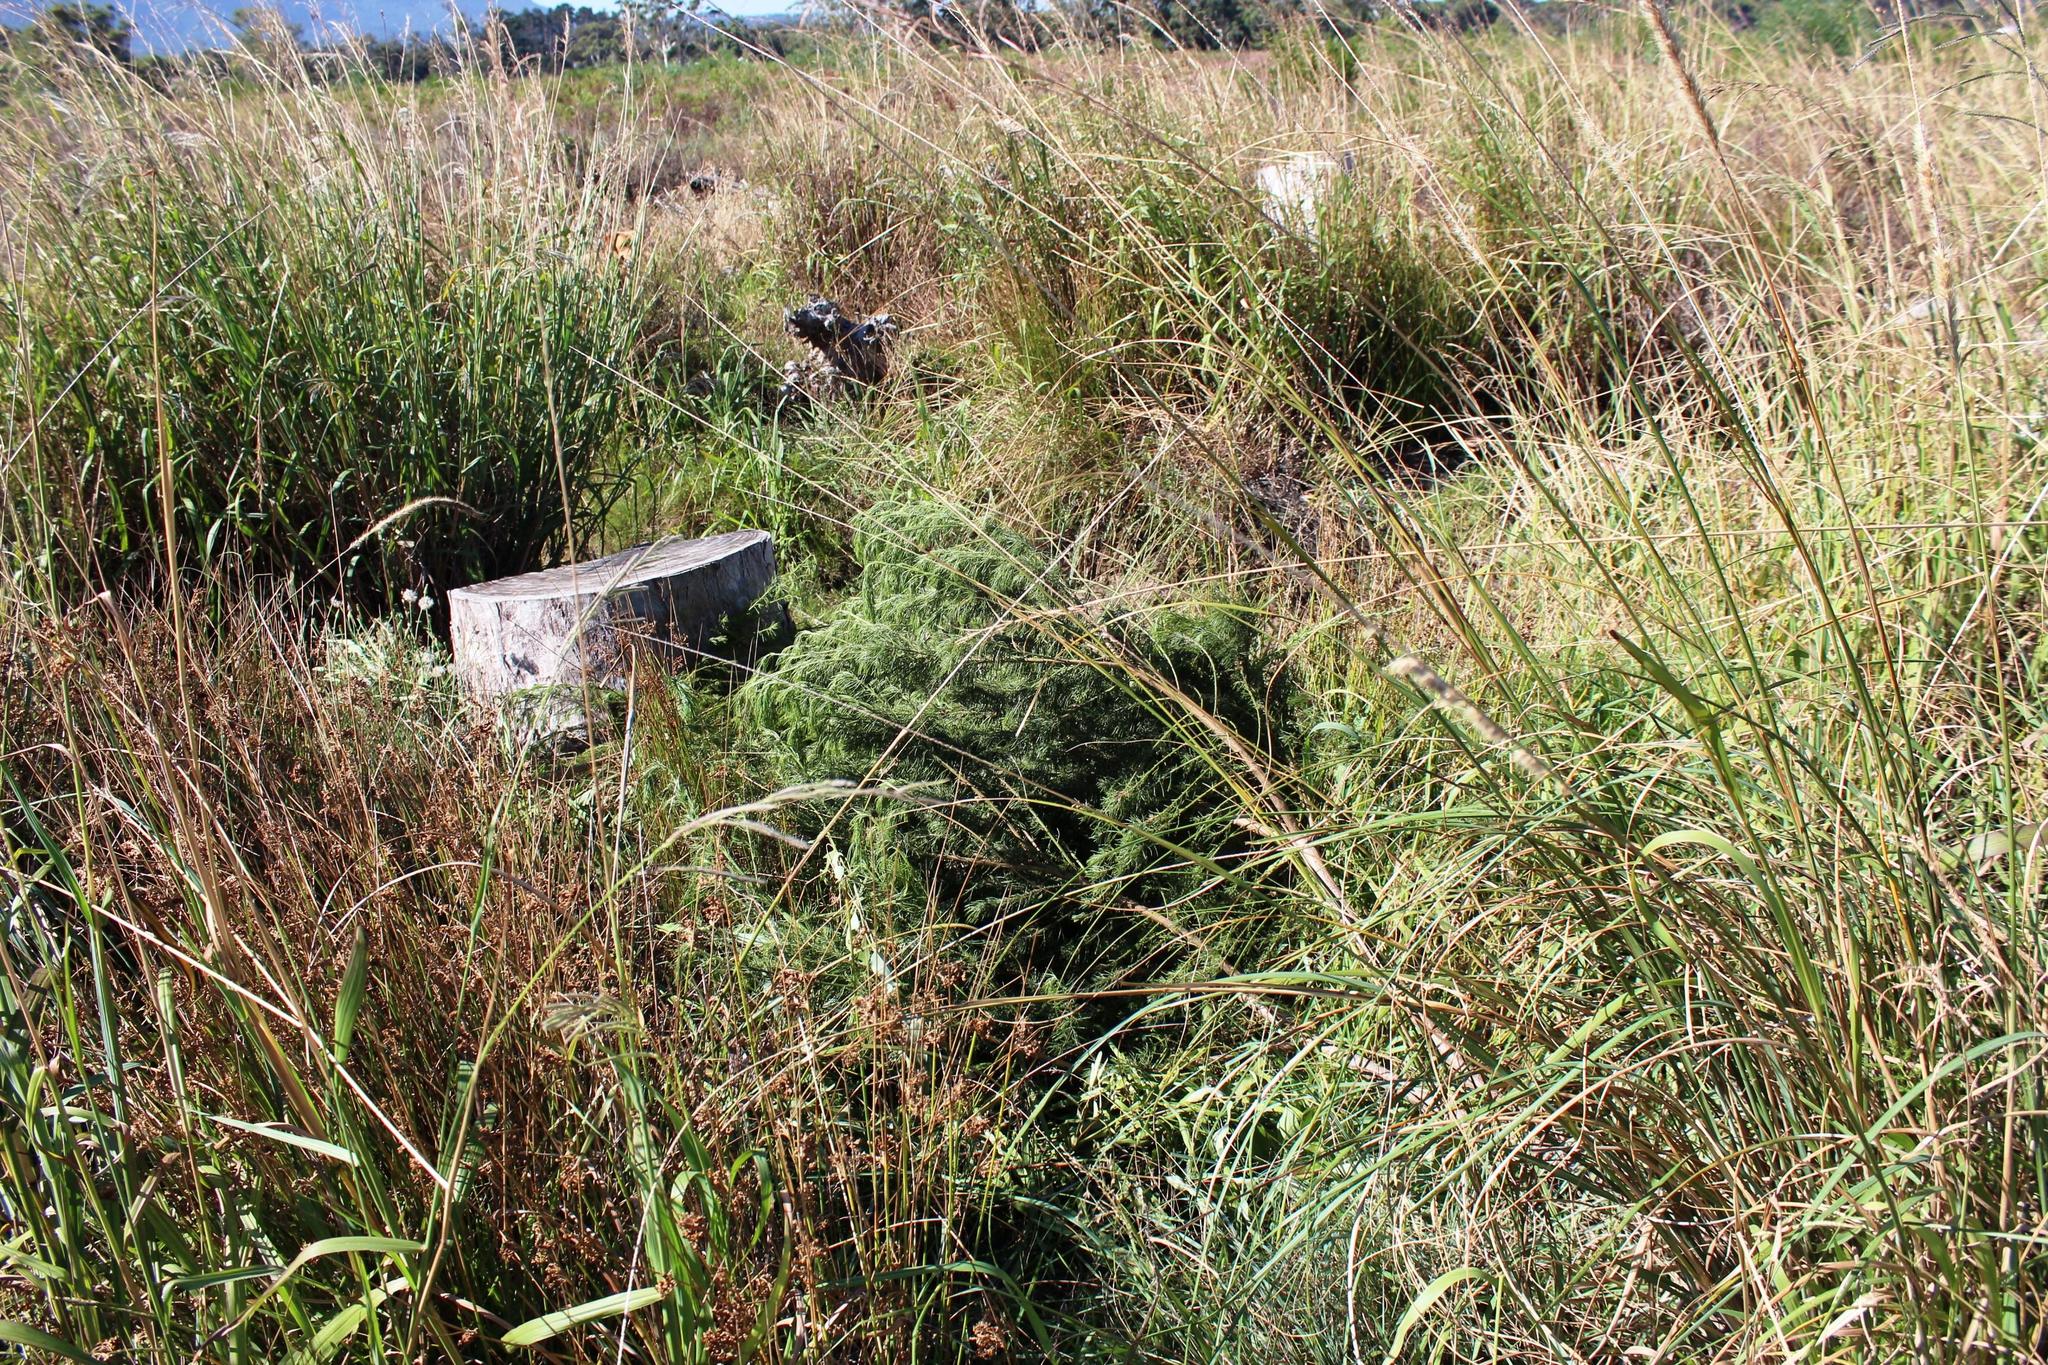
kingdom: Plantae
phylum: Tracheophyta
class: Magnoliopsida
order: Fabales
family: Fabaceae
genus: Psoralea
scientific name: Psoralea pinnata
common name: African scurfpea
